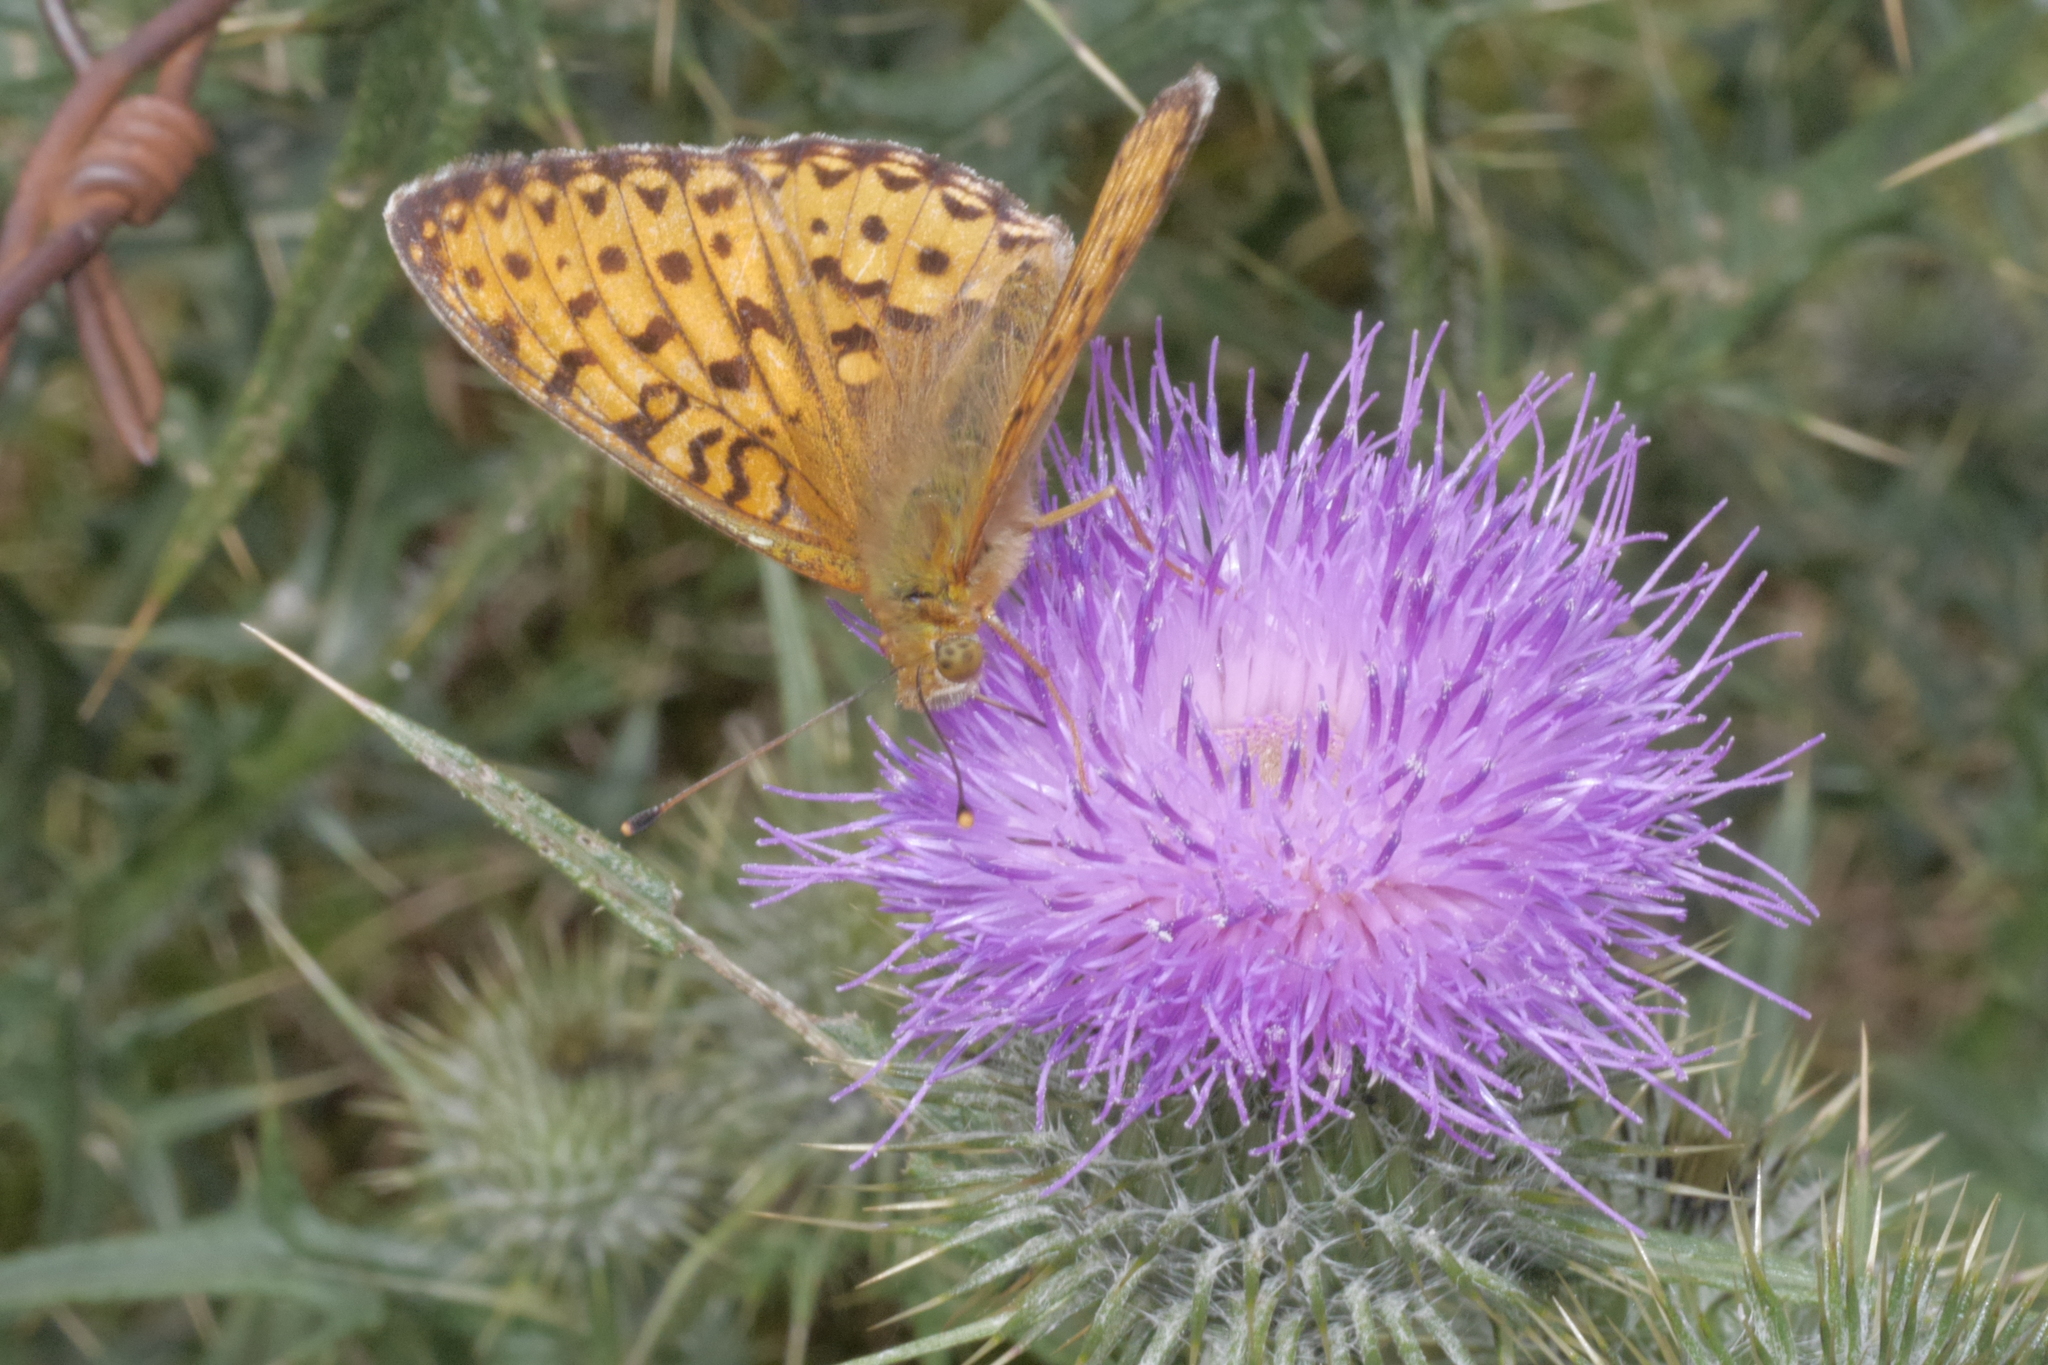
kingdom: Animalia
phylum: Arthropoda
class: Insecta
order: Lepidoptera
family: Nymphalidae
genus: Speyeria
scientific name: Speyeria aglaja
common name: Dark green fritillary
